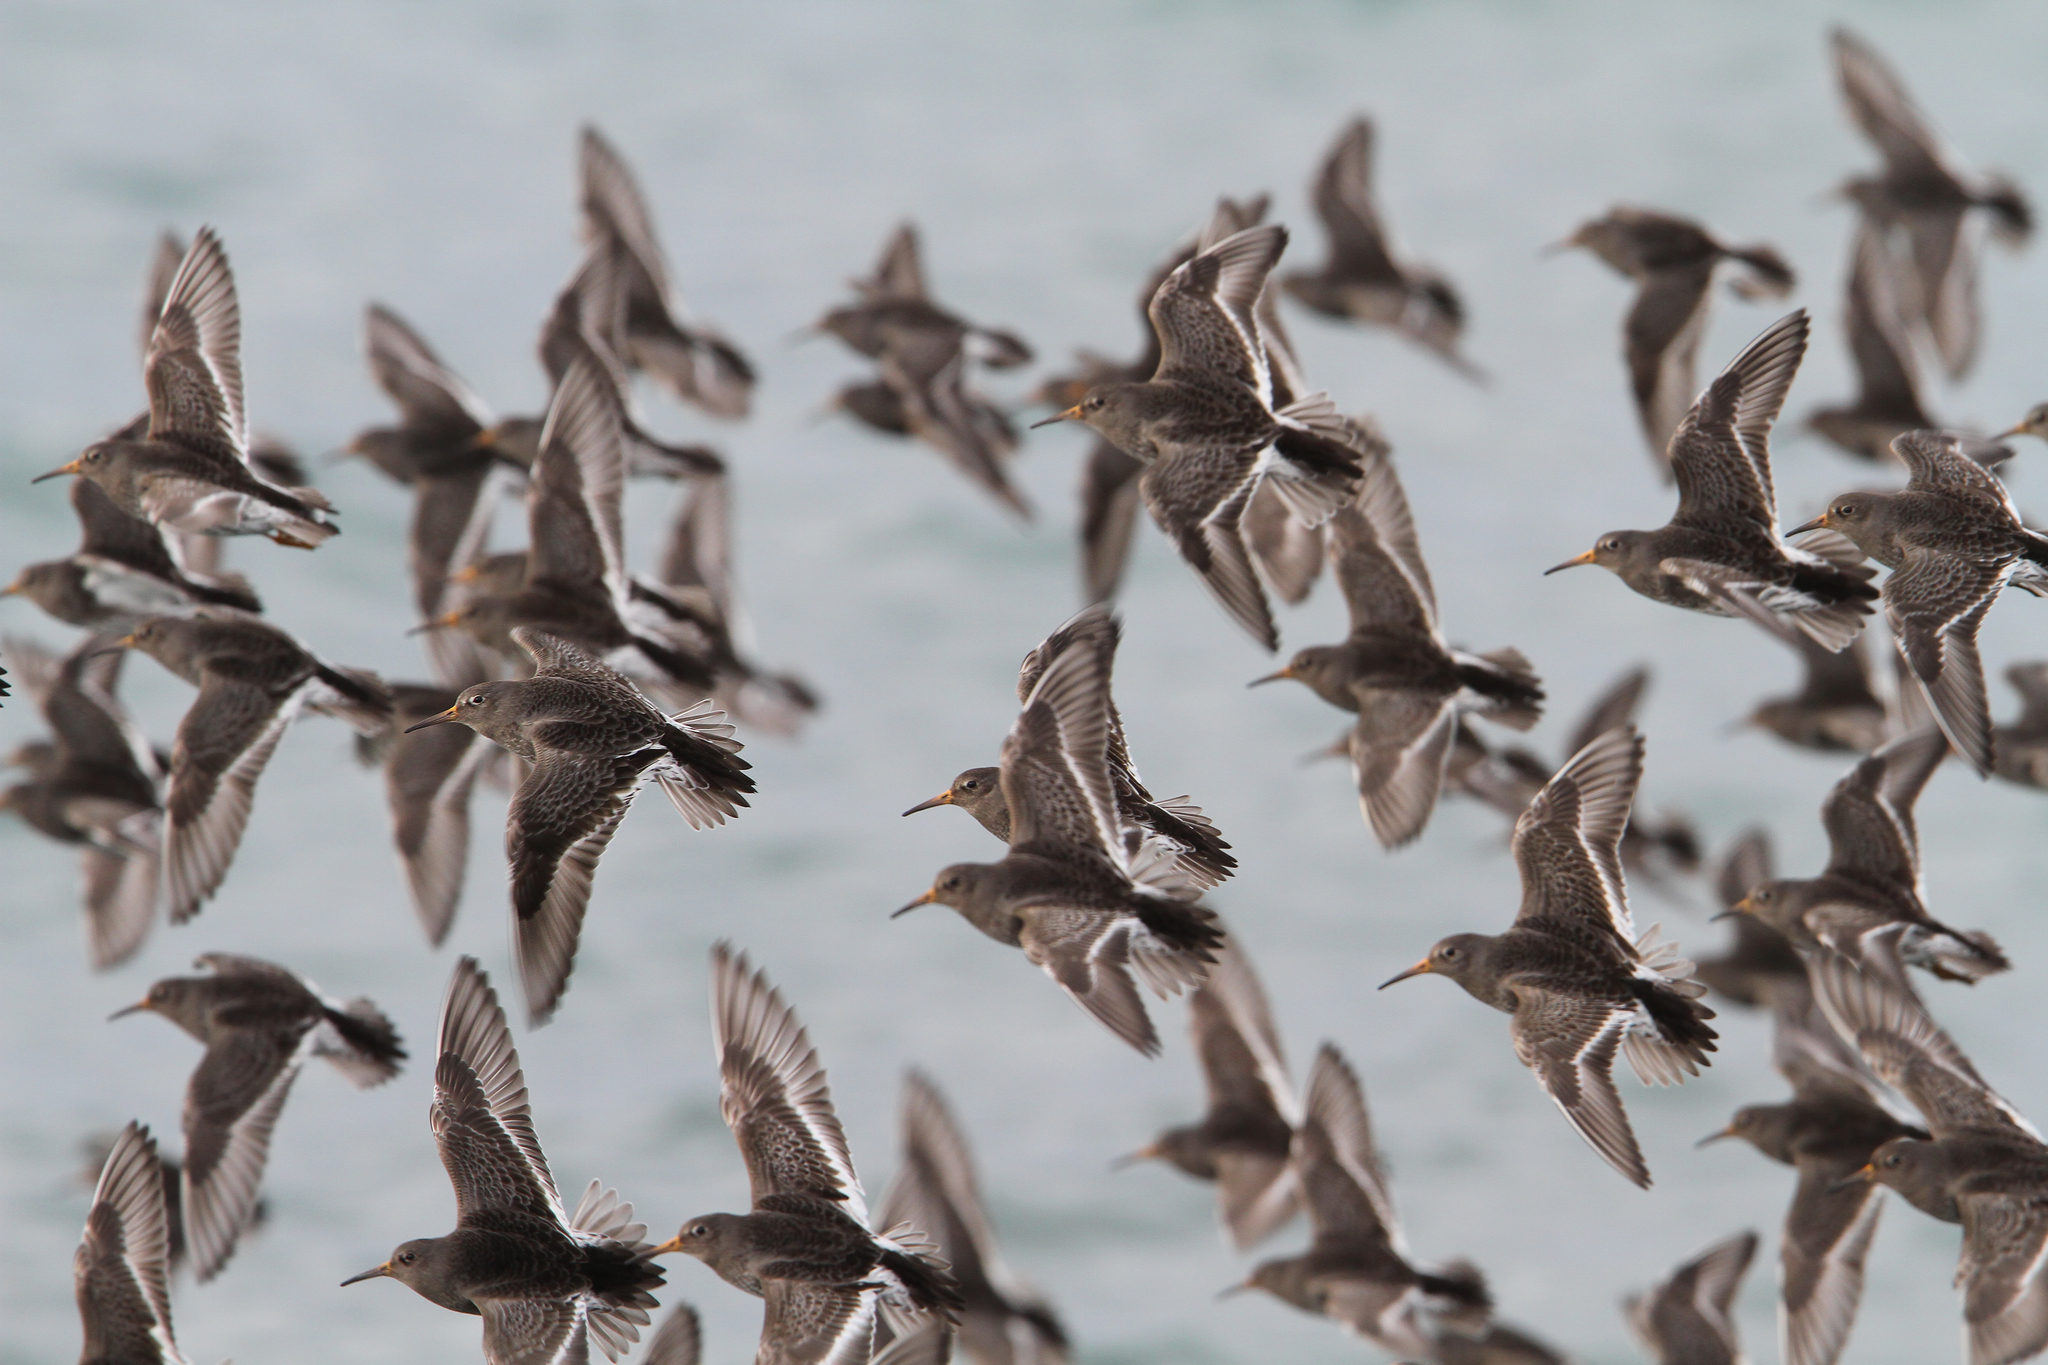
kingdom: Animalia
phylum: Chordata
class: Aves
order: Charadriiformes
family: Scolopacidae
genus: Calidris
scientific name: Calidris maritima
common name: Purple sandpiper
